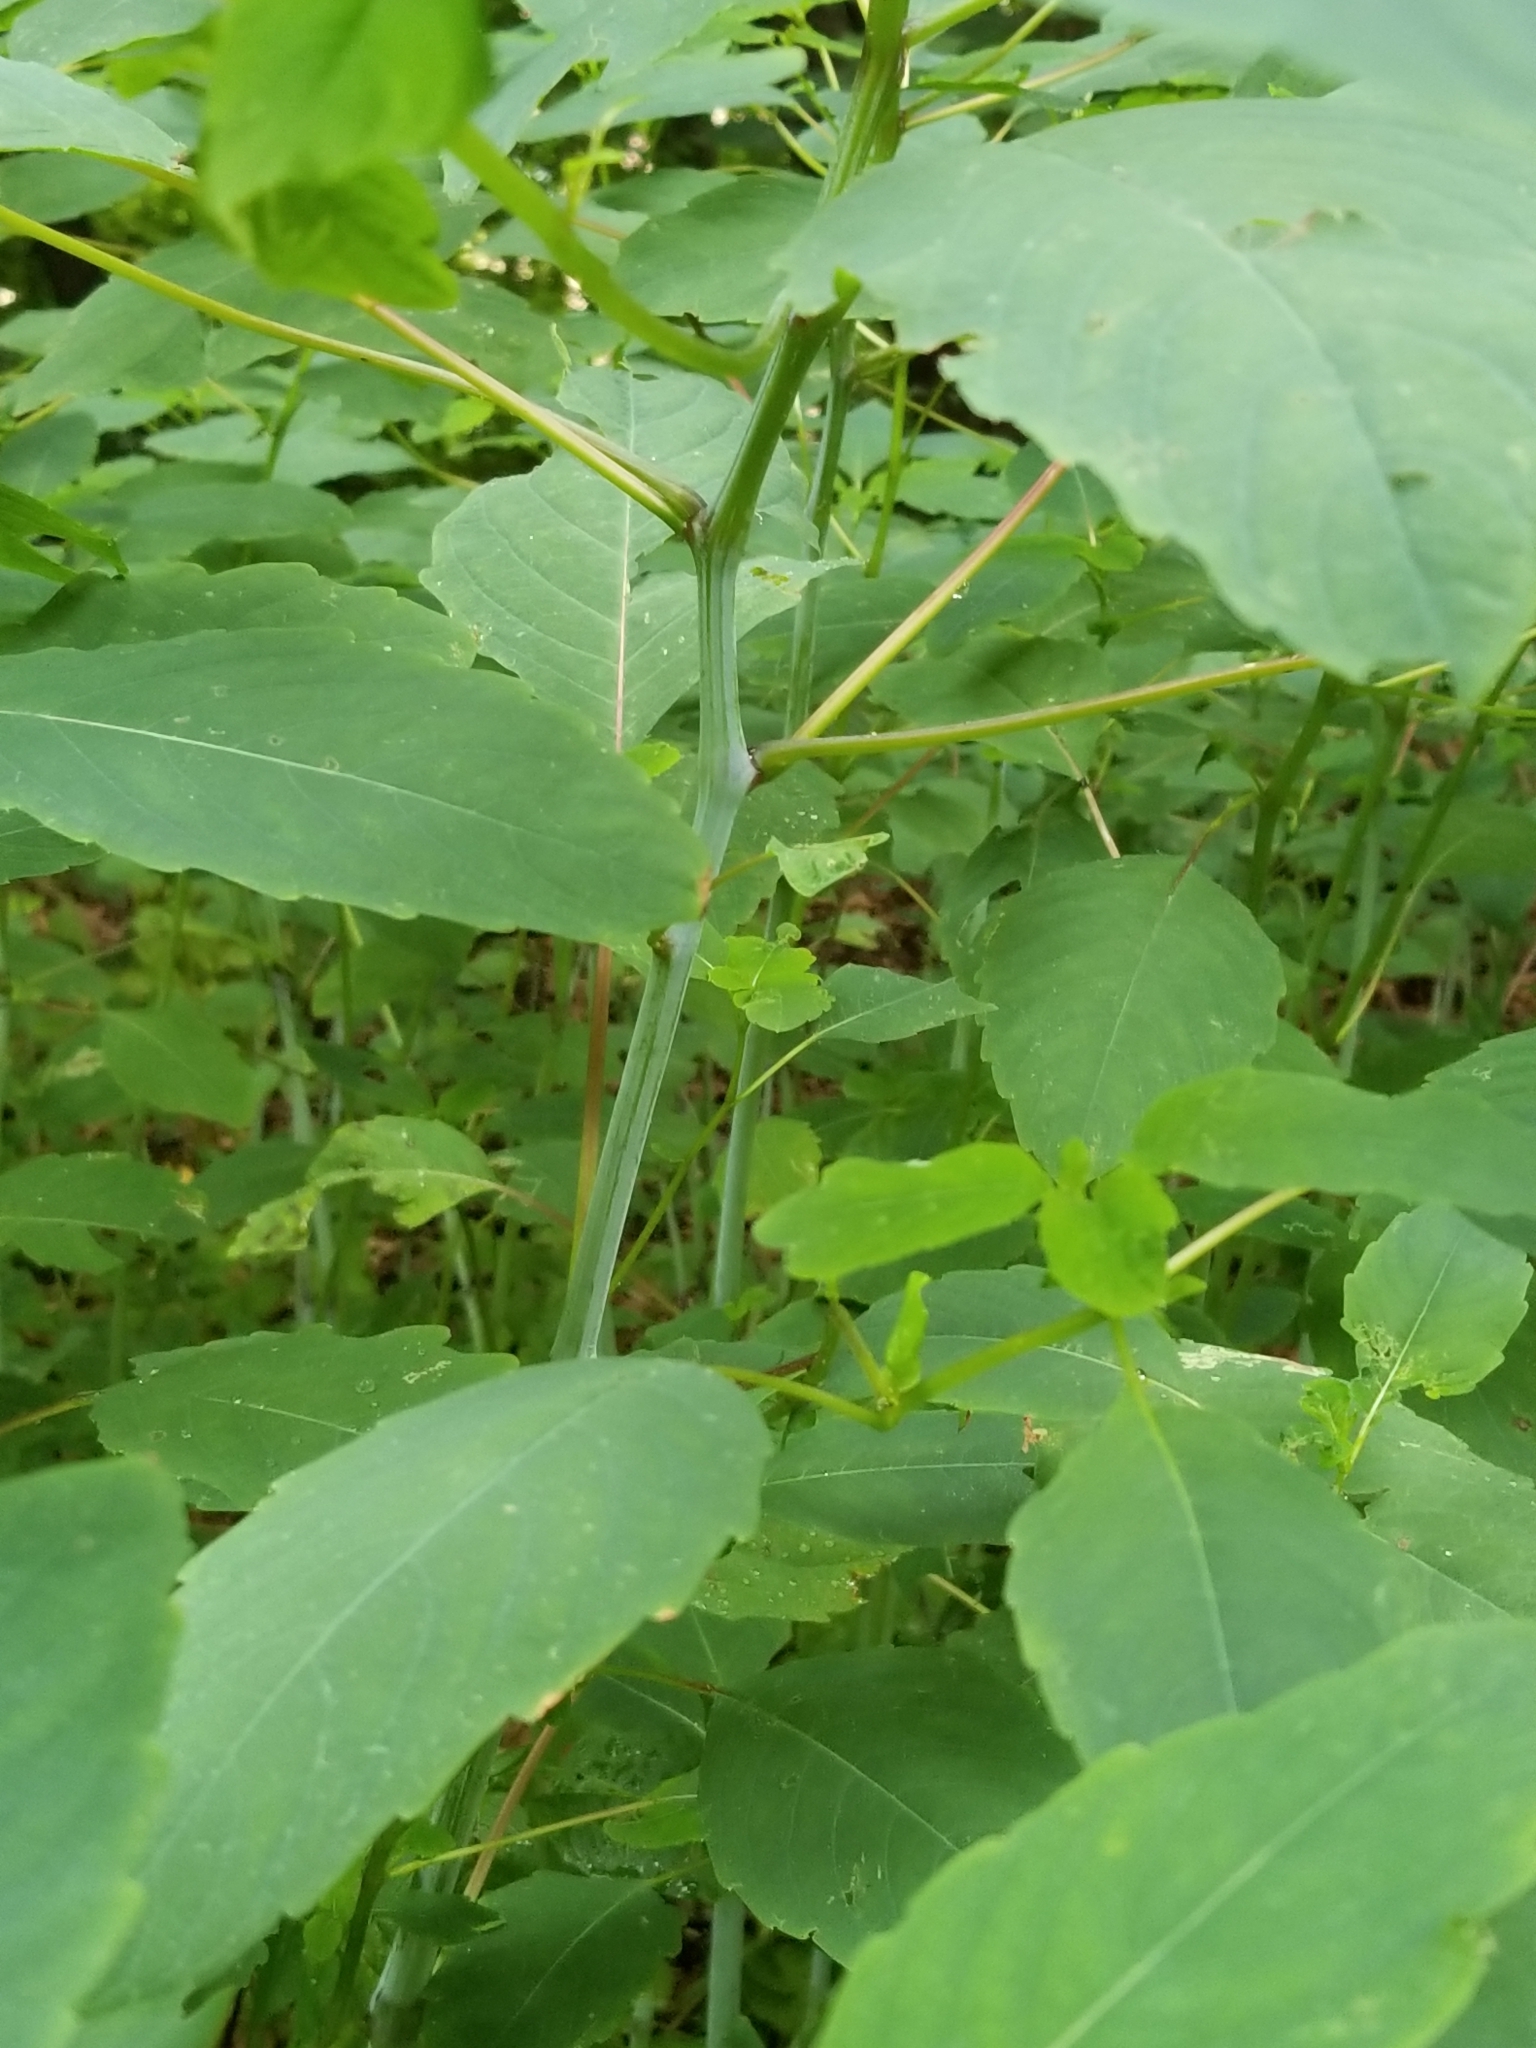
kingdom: Plantae
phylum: Tracheophyta
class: Magnoliopsida
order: Ericales
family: Balsaminaceae
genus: Impatiens
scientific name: Impatiens capensis
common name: Orange balsam
